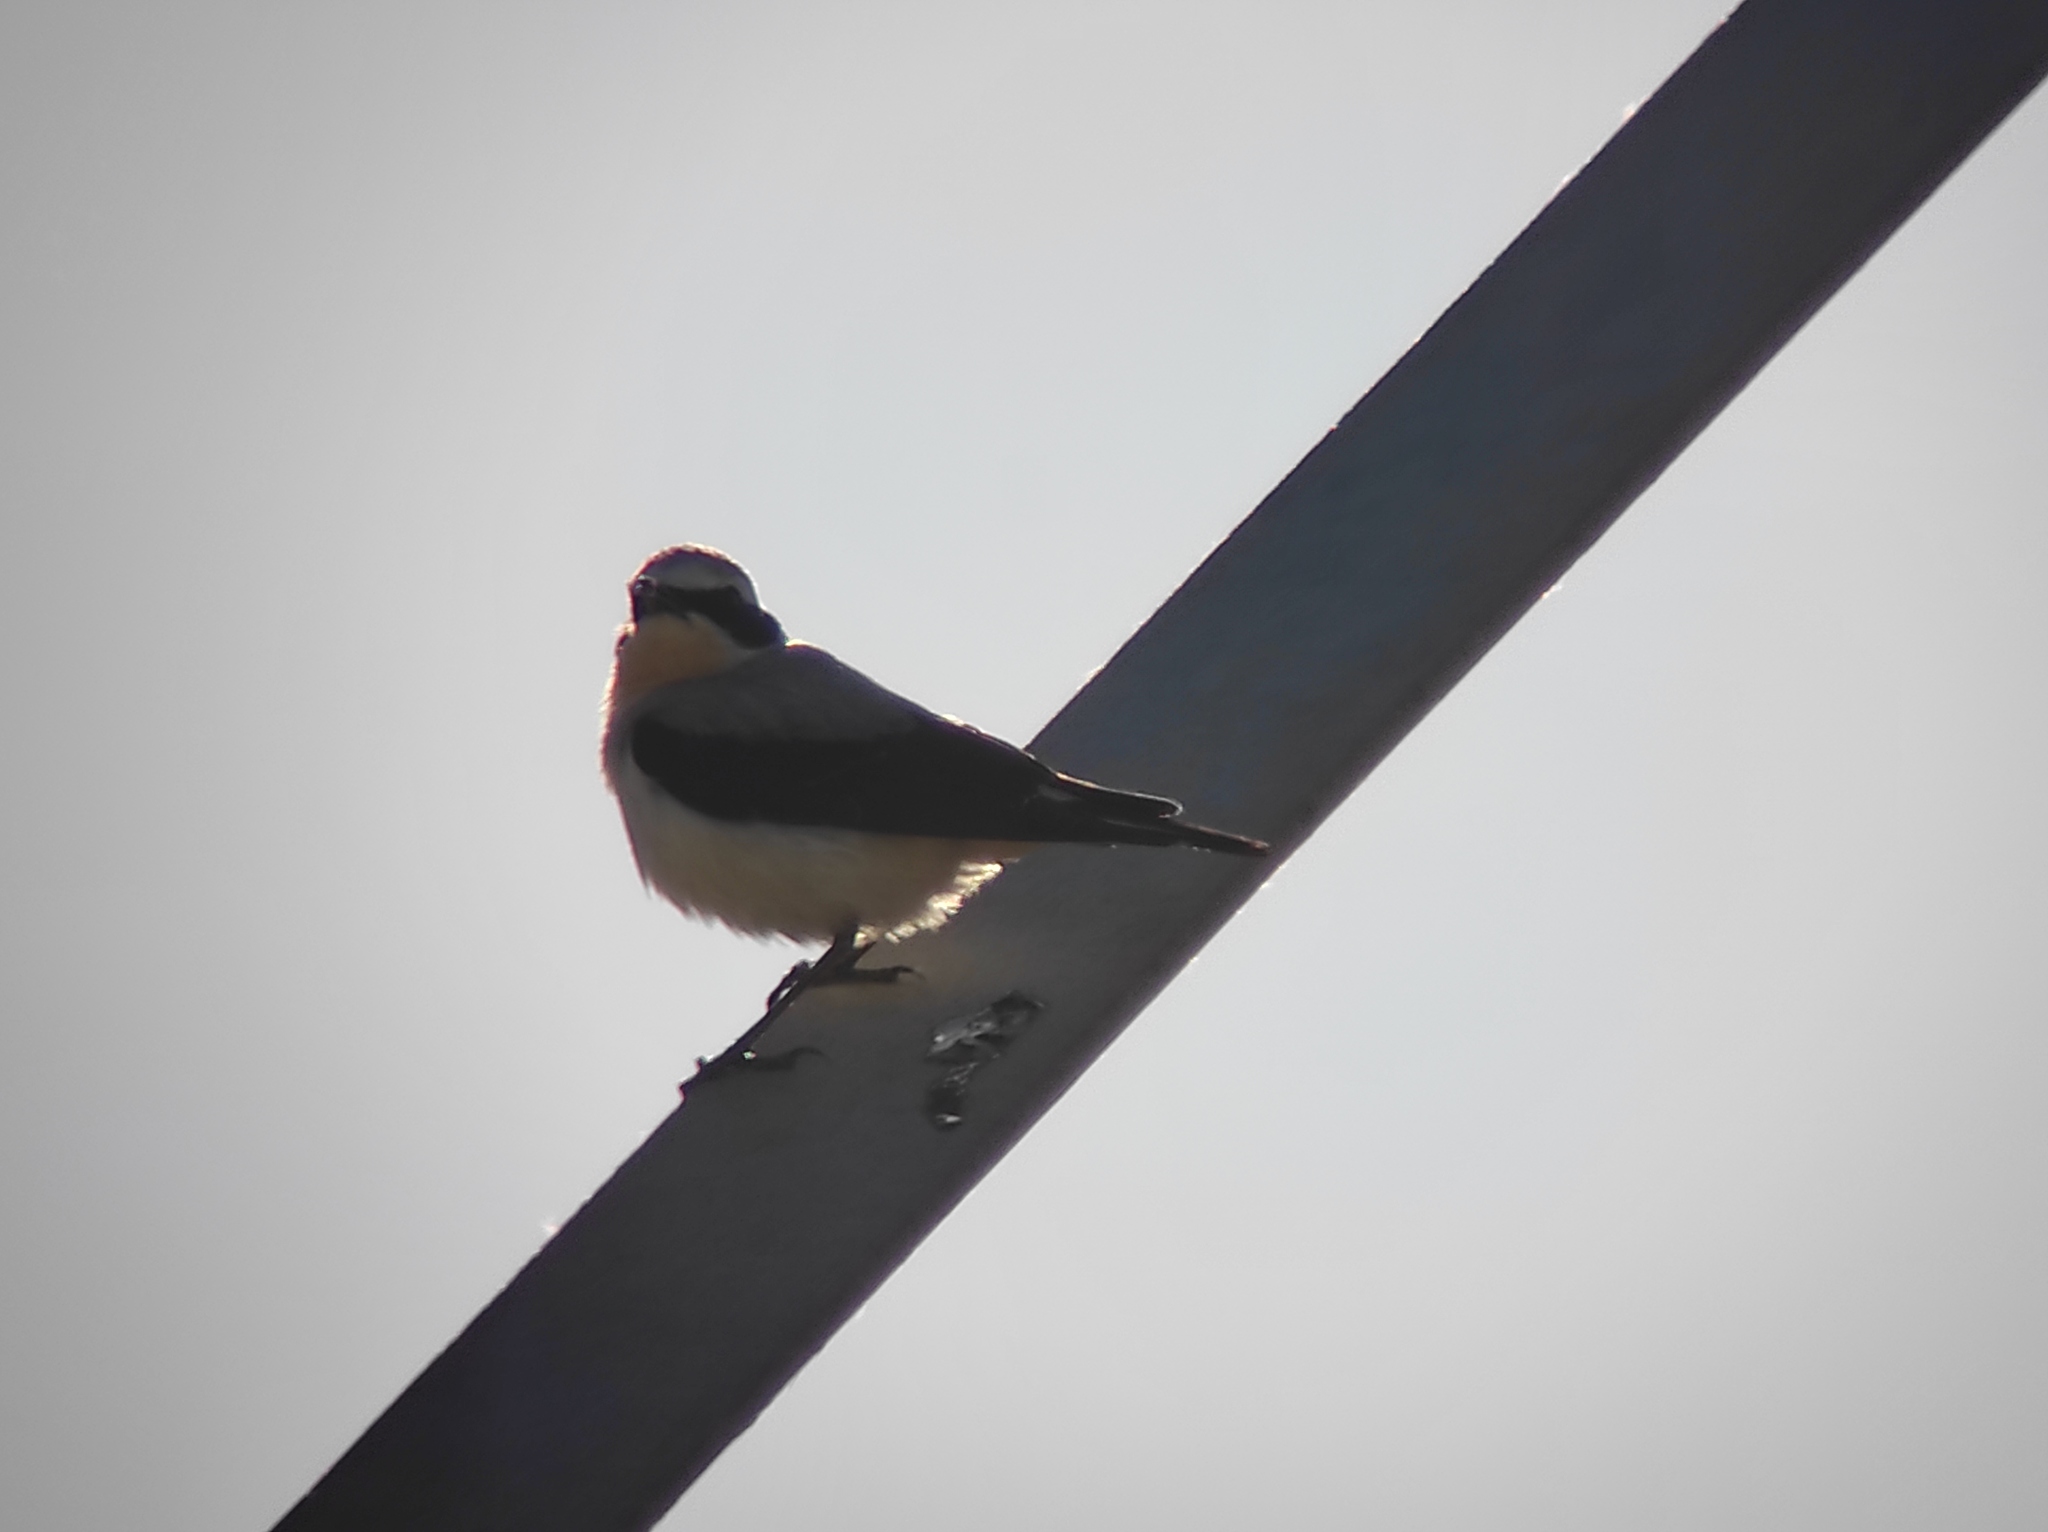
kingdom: Animalia
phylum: Chordata
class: Aves
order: Passeriformes
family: Muscicapidae
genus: Oenanthe
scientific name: Oenanthe oenanthe
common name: Northern wheatear
